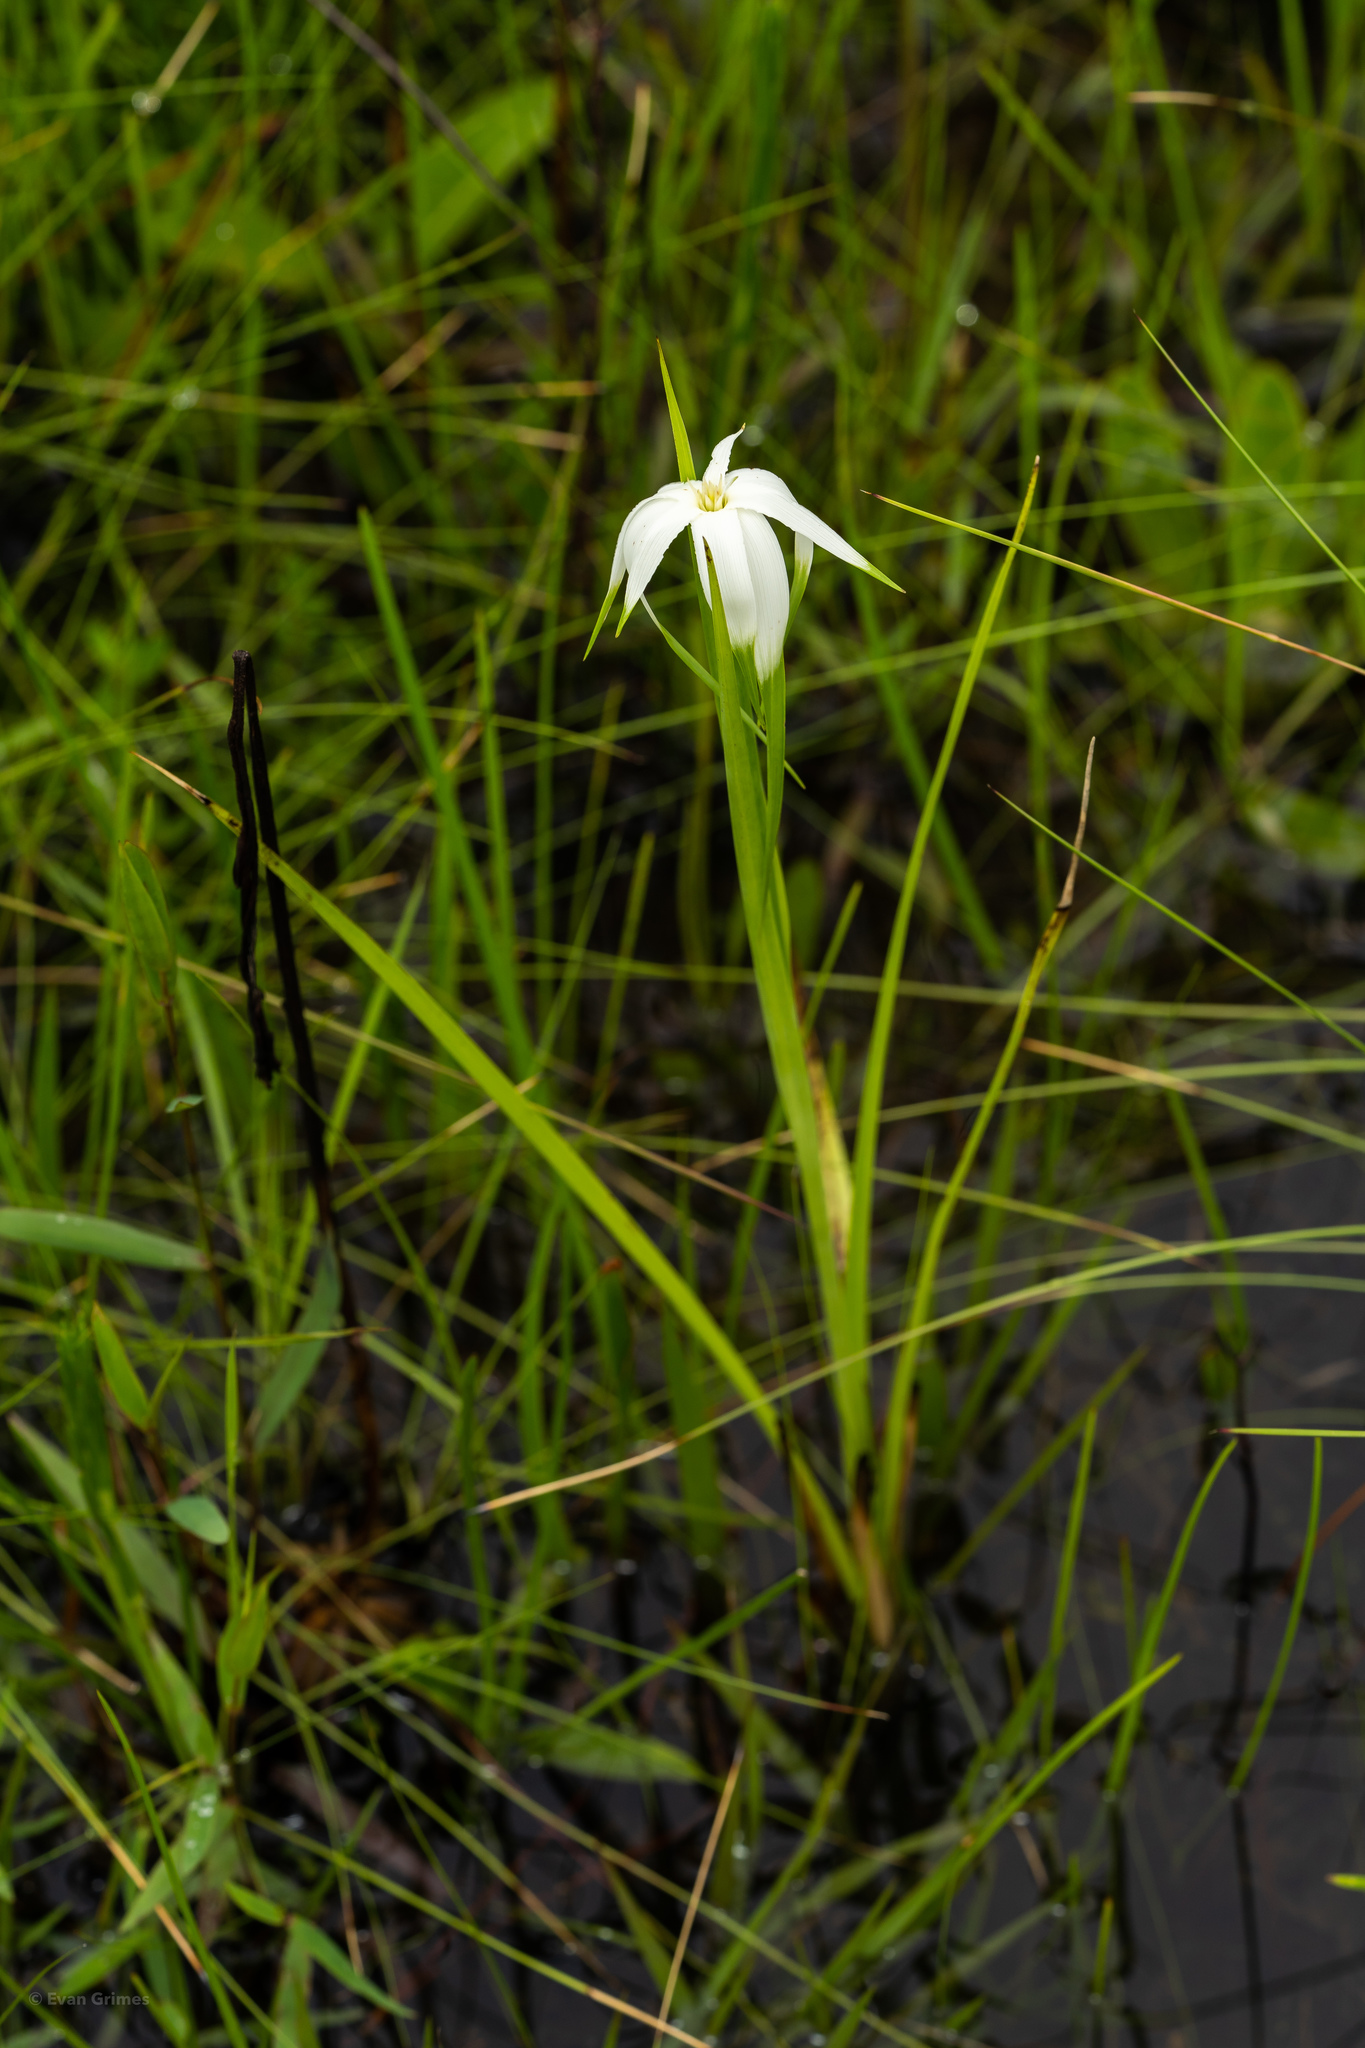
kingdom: Plantae
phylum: Tracheophyta
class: Liliopsida
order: Poales
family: Cyperaceae
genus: Rhynchospora
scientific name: Rhynchospora latifolia
